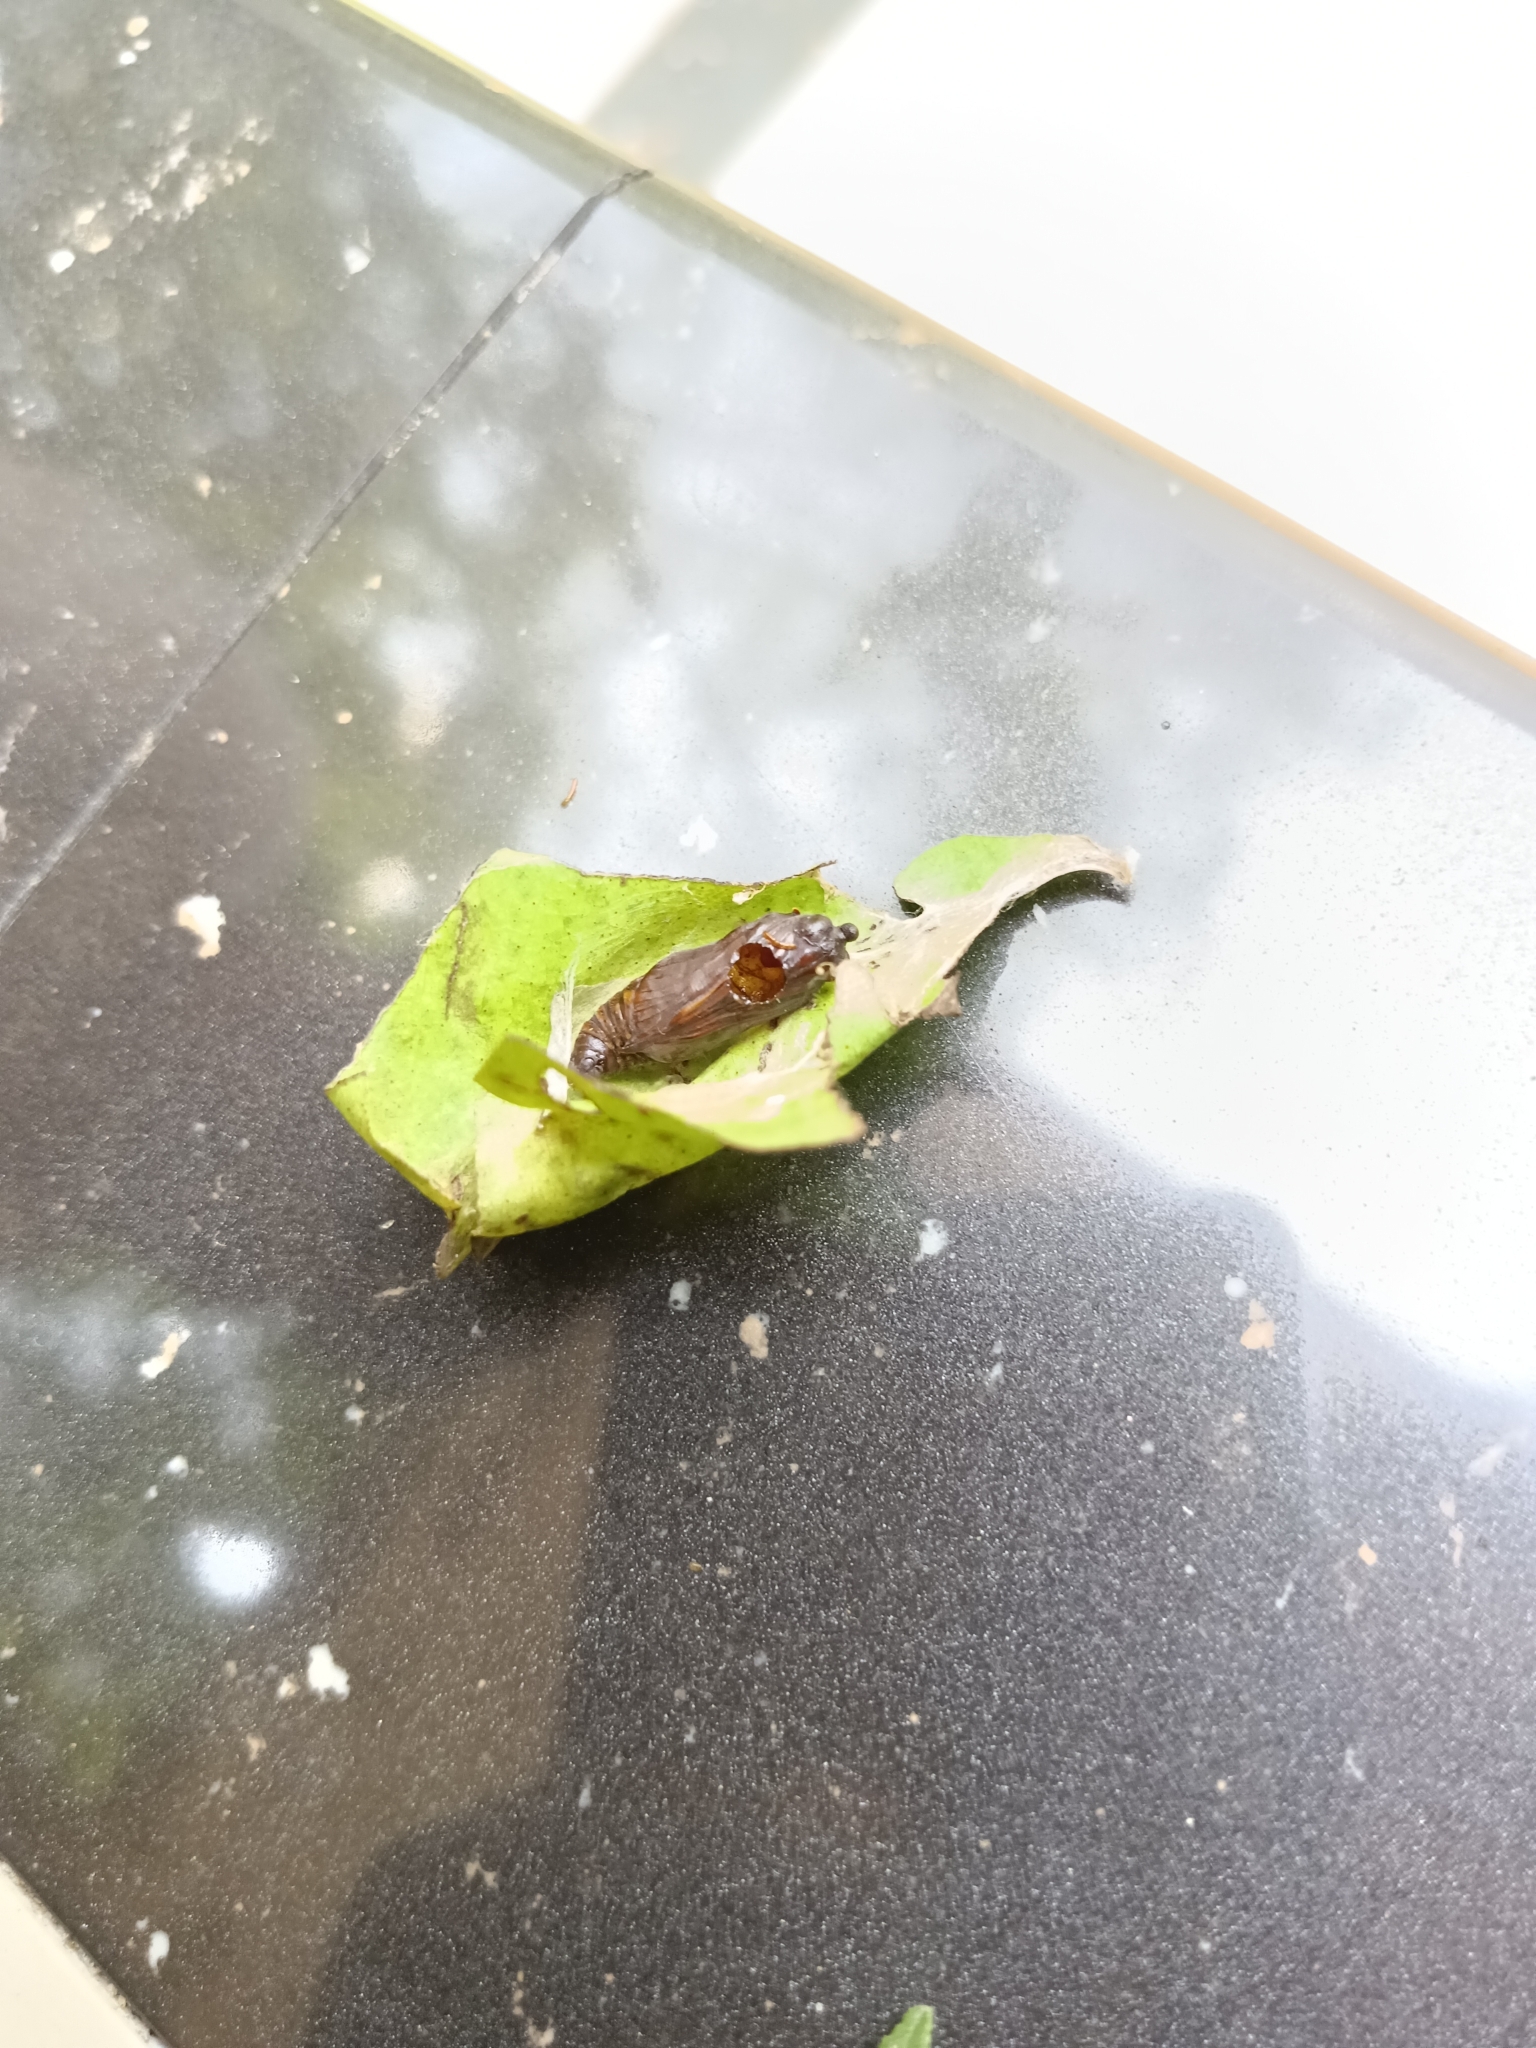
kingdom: Animalia
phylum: Arthropoda
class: Insecta
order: Lepidoptera
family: Hesperiidae
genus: Coladenia
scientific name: Coladenia
